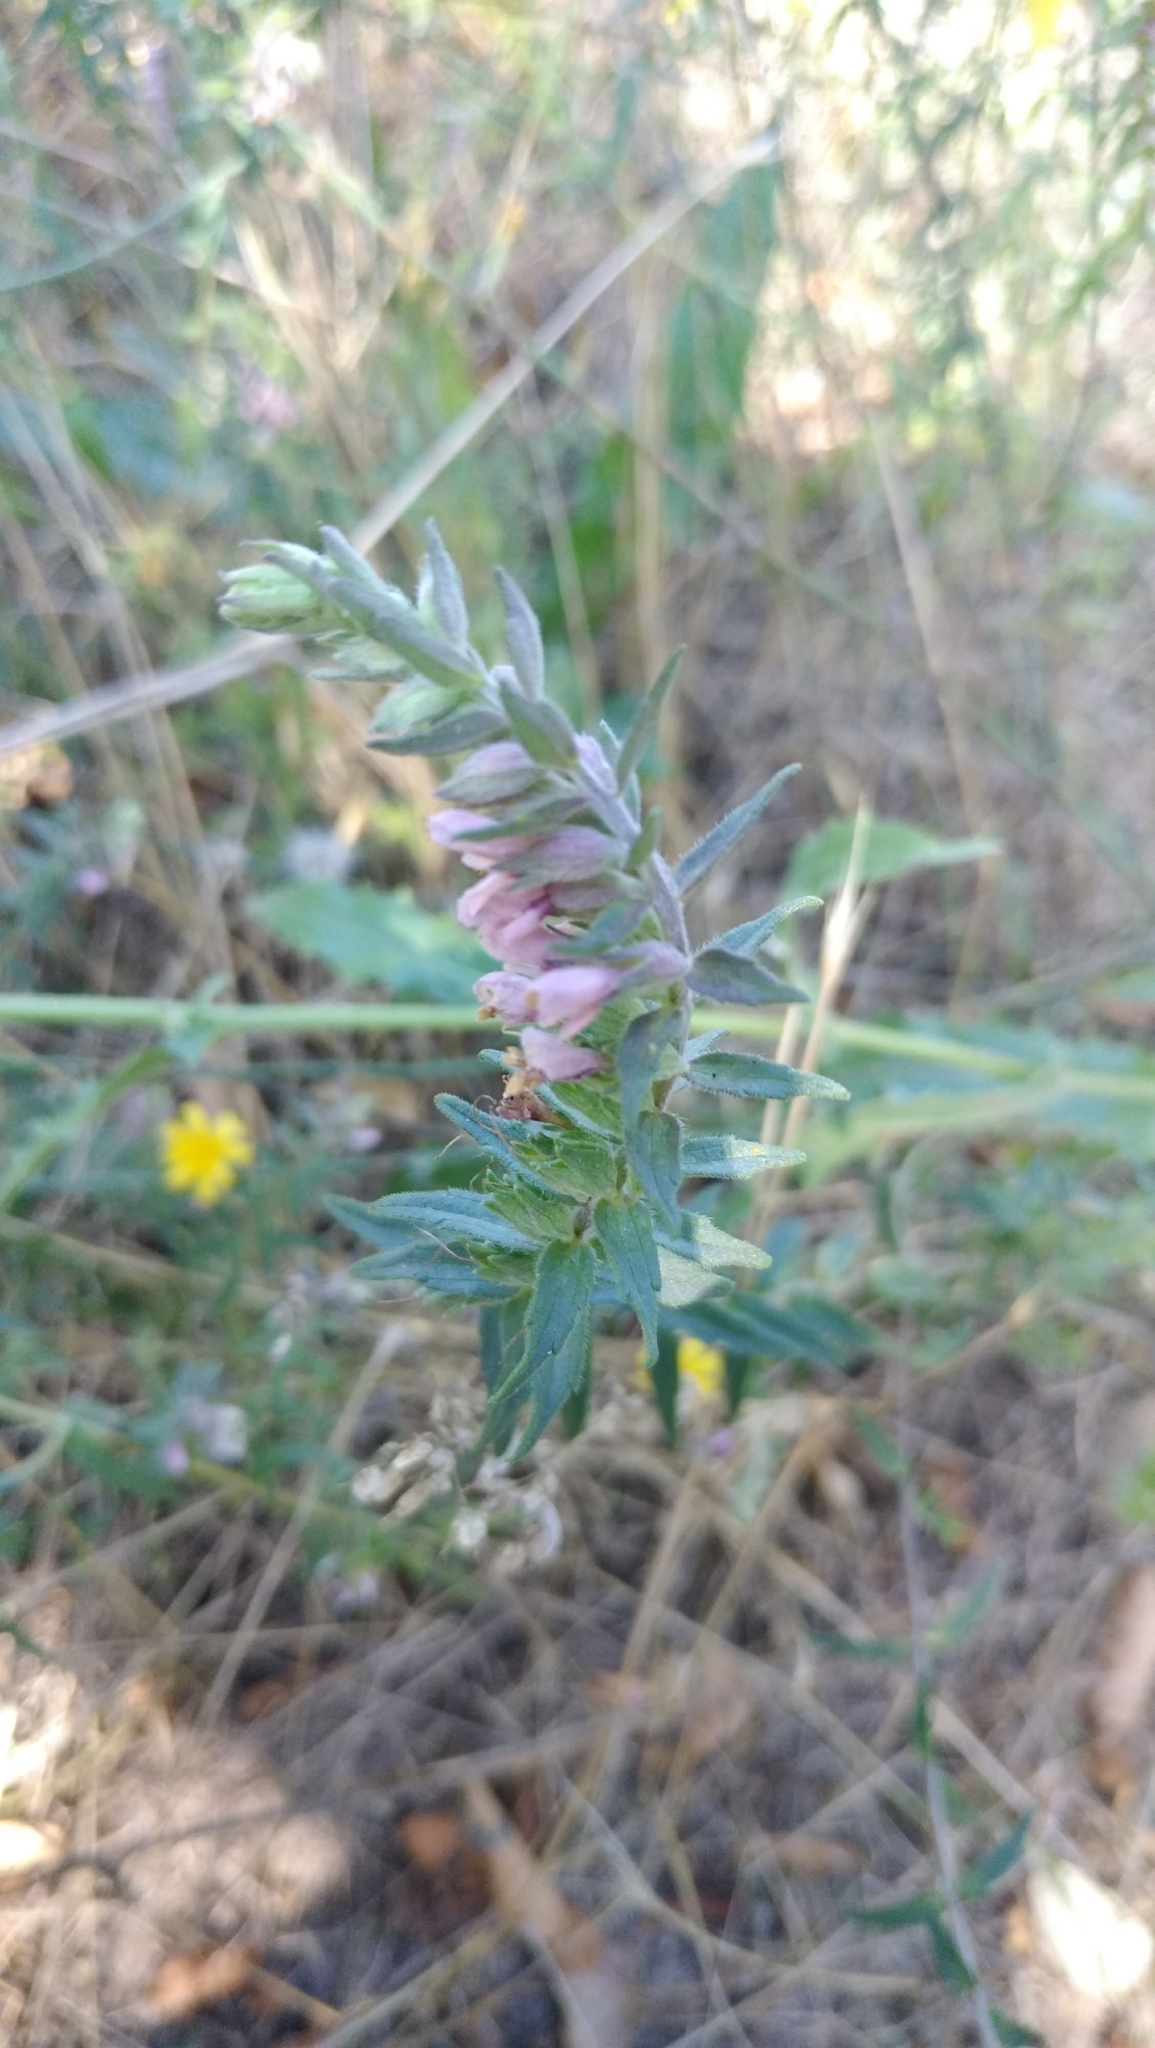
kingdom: Plantae
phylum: Tracheophyta
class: Magnoliopsida
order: Lamiales
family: Orobanchaceae
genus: Odontites
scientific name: Odontites vulgaris
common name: Broomrape
